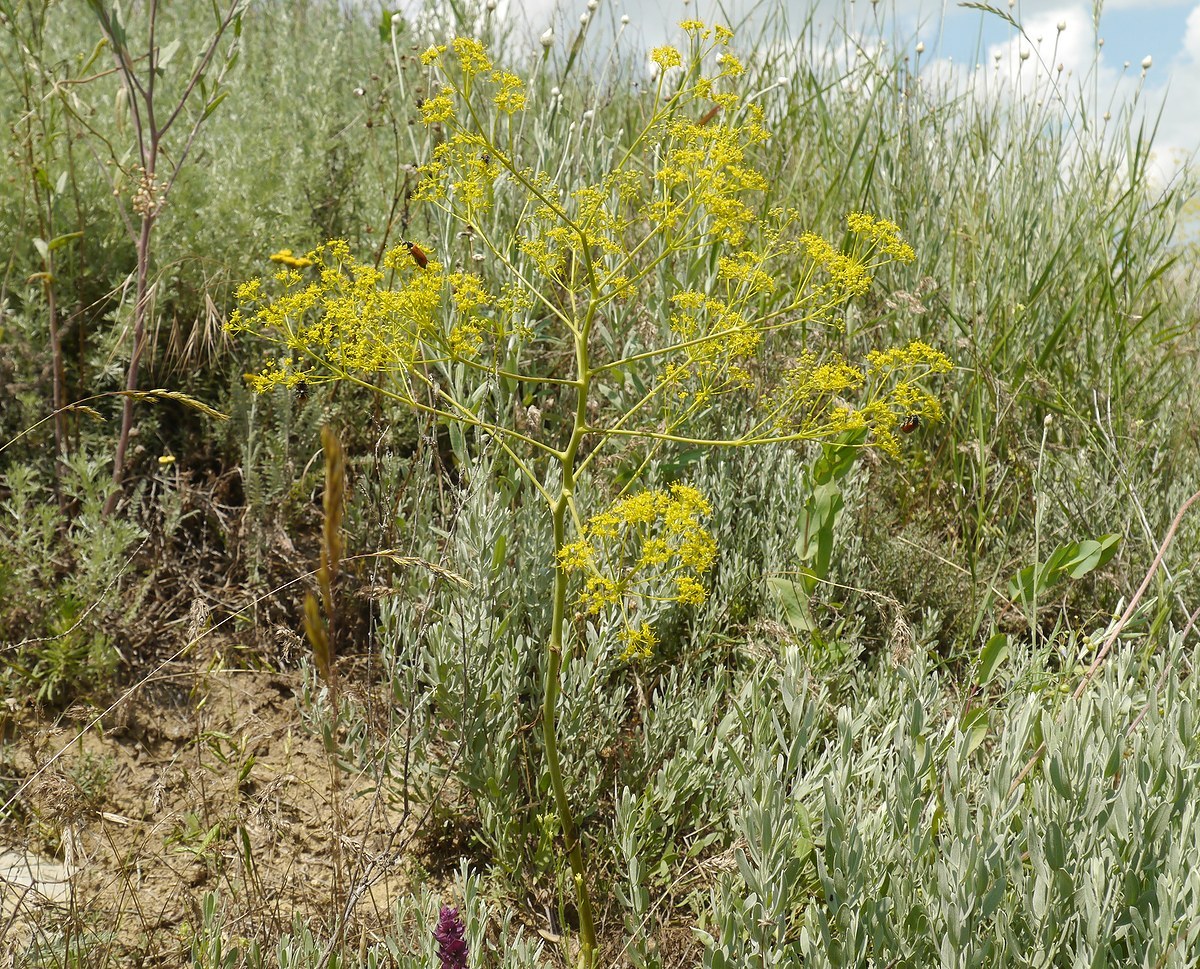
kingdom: Plantae
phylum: Tracheophyta
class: Magnoliopsida
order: Apiales
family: Apiaceae
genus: Ferula
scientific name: Ferula caspica
